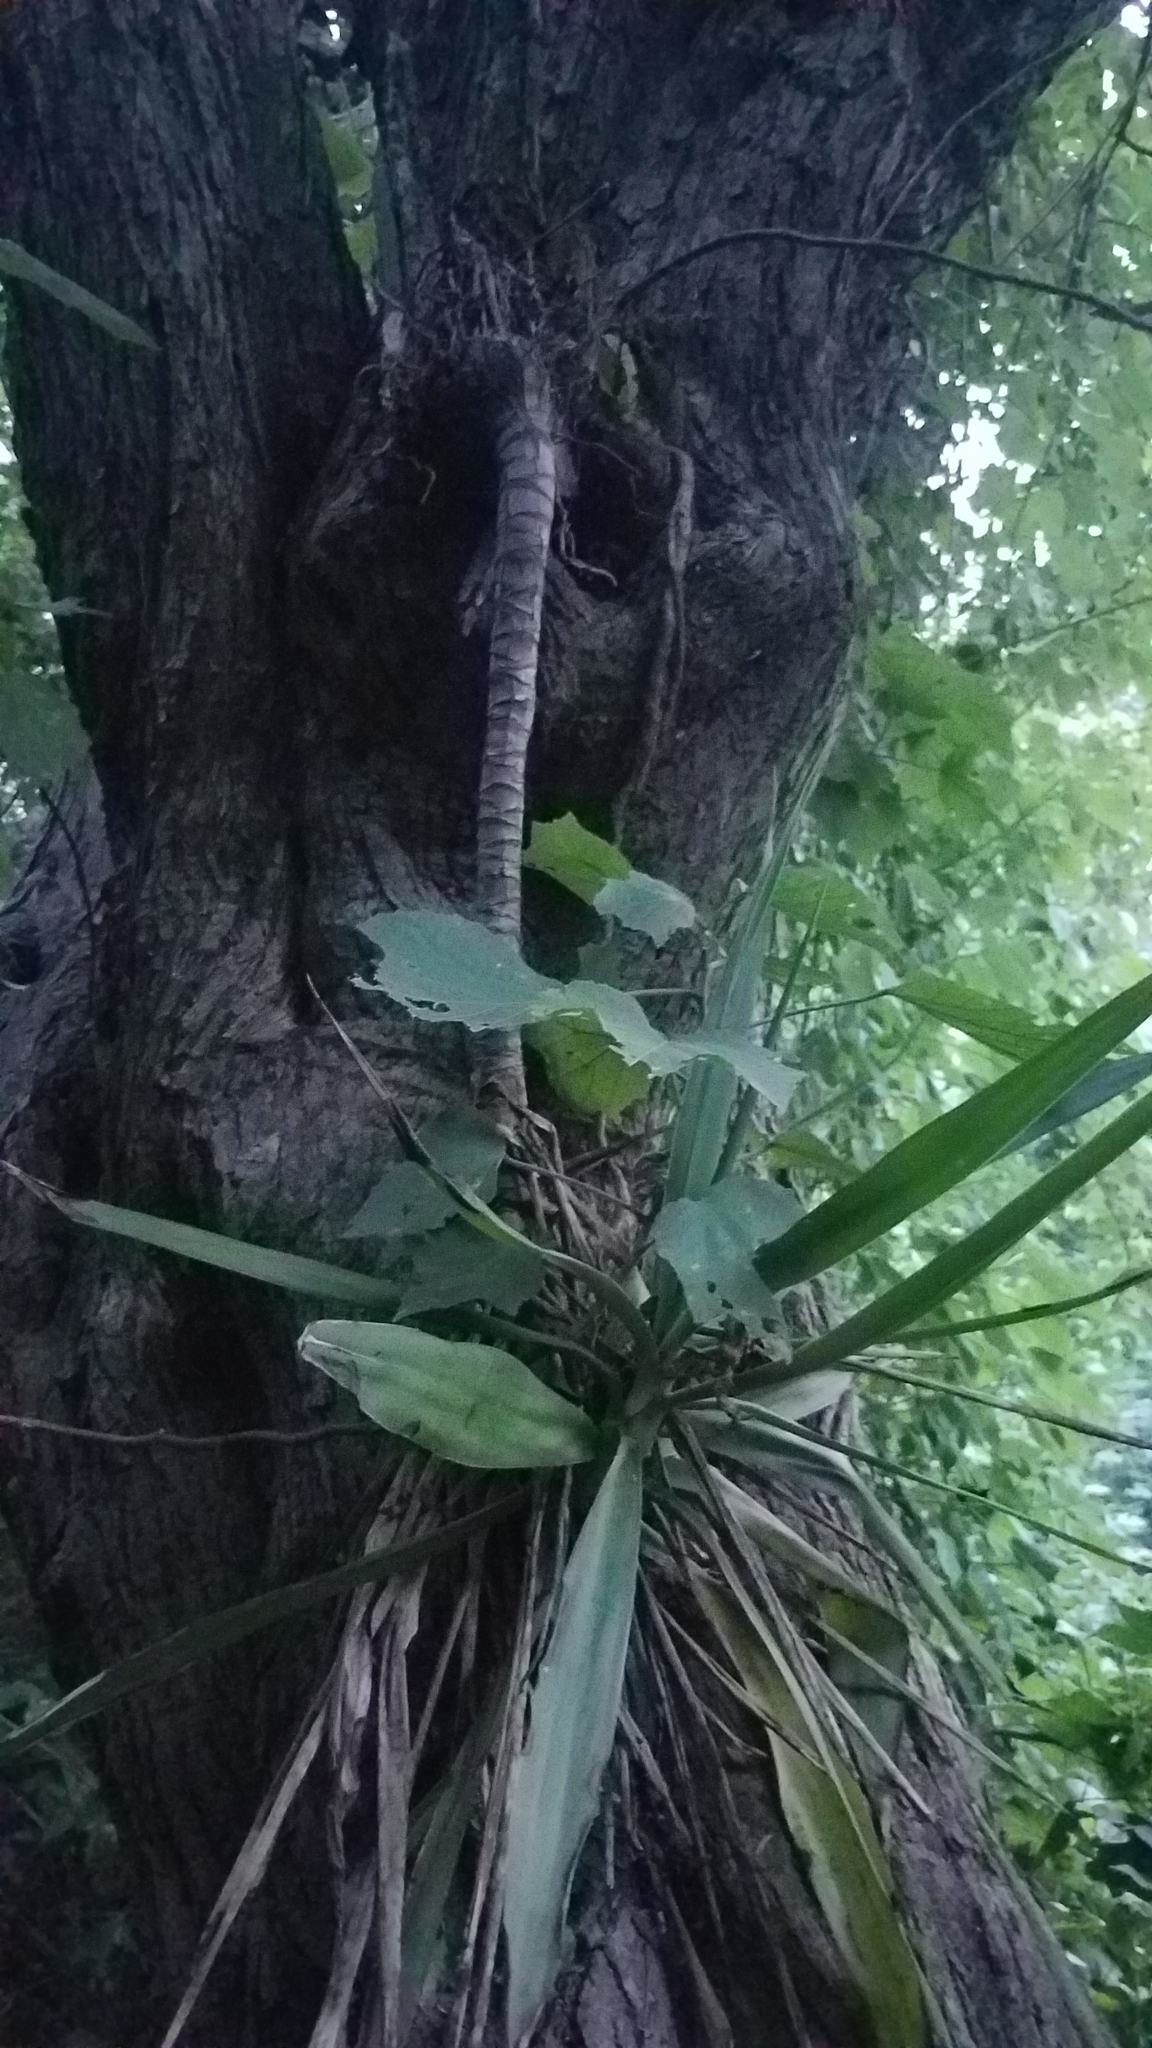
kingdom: Plantae
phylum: Tracheophyta
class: Liliopsida
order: Asparagales
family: Asparagaceae
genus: Yucca
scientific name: Yucca gigantea
